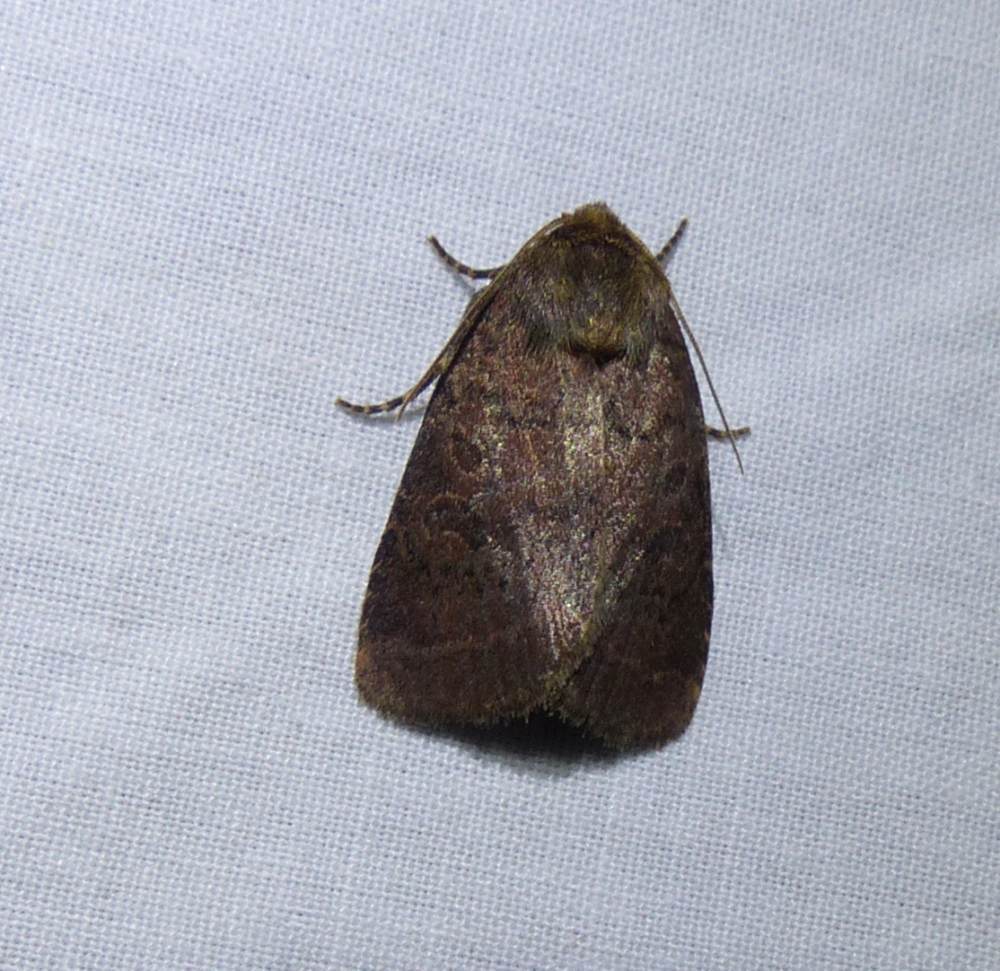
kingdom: Animalia
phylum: Arthropoda
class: Insecta
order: Lepidoptera
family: Noctuidae
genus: Orthodes
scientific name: Orthodes cynica
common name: Cynical quaker
